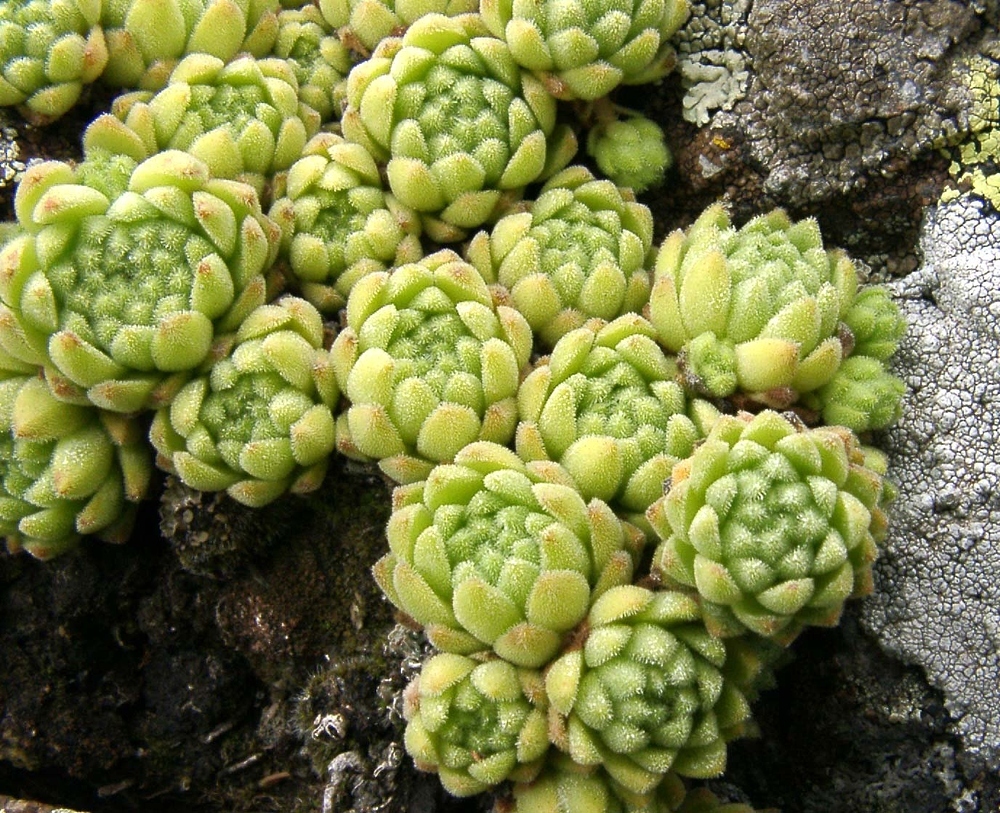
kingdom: Plantae
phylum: Tracheophyta
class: Magnoliopsida
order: Saxifragales
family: Crassulaceae
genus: Sempervivum
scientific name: Sempervivum montanum
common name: Mountain house-leek
